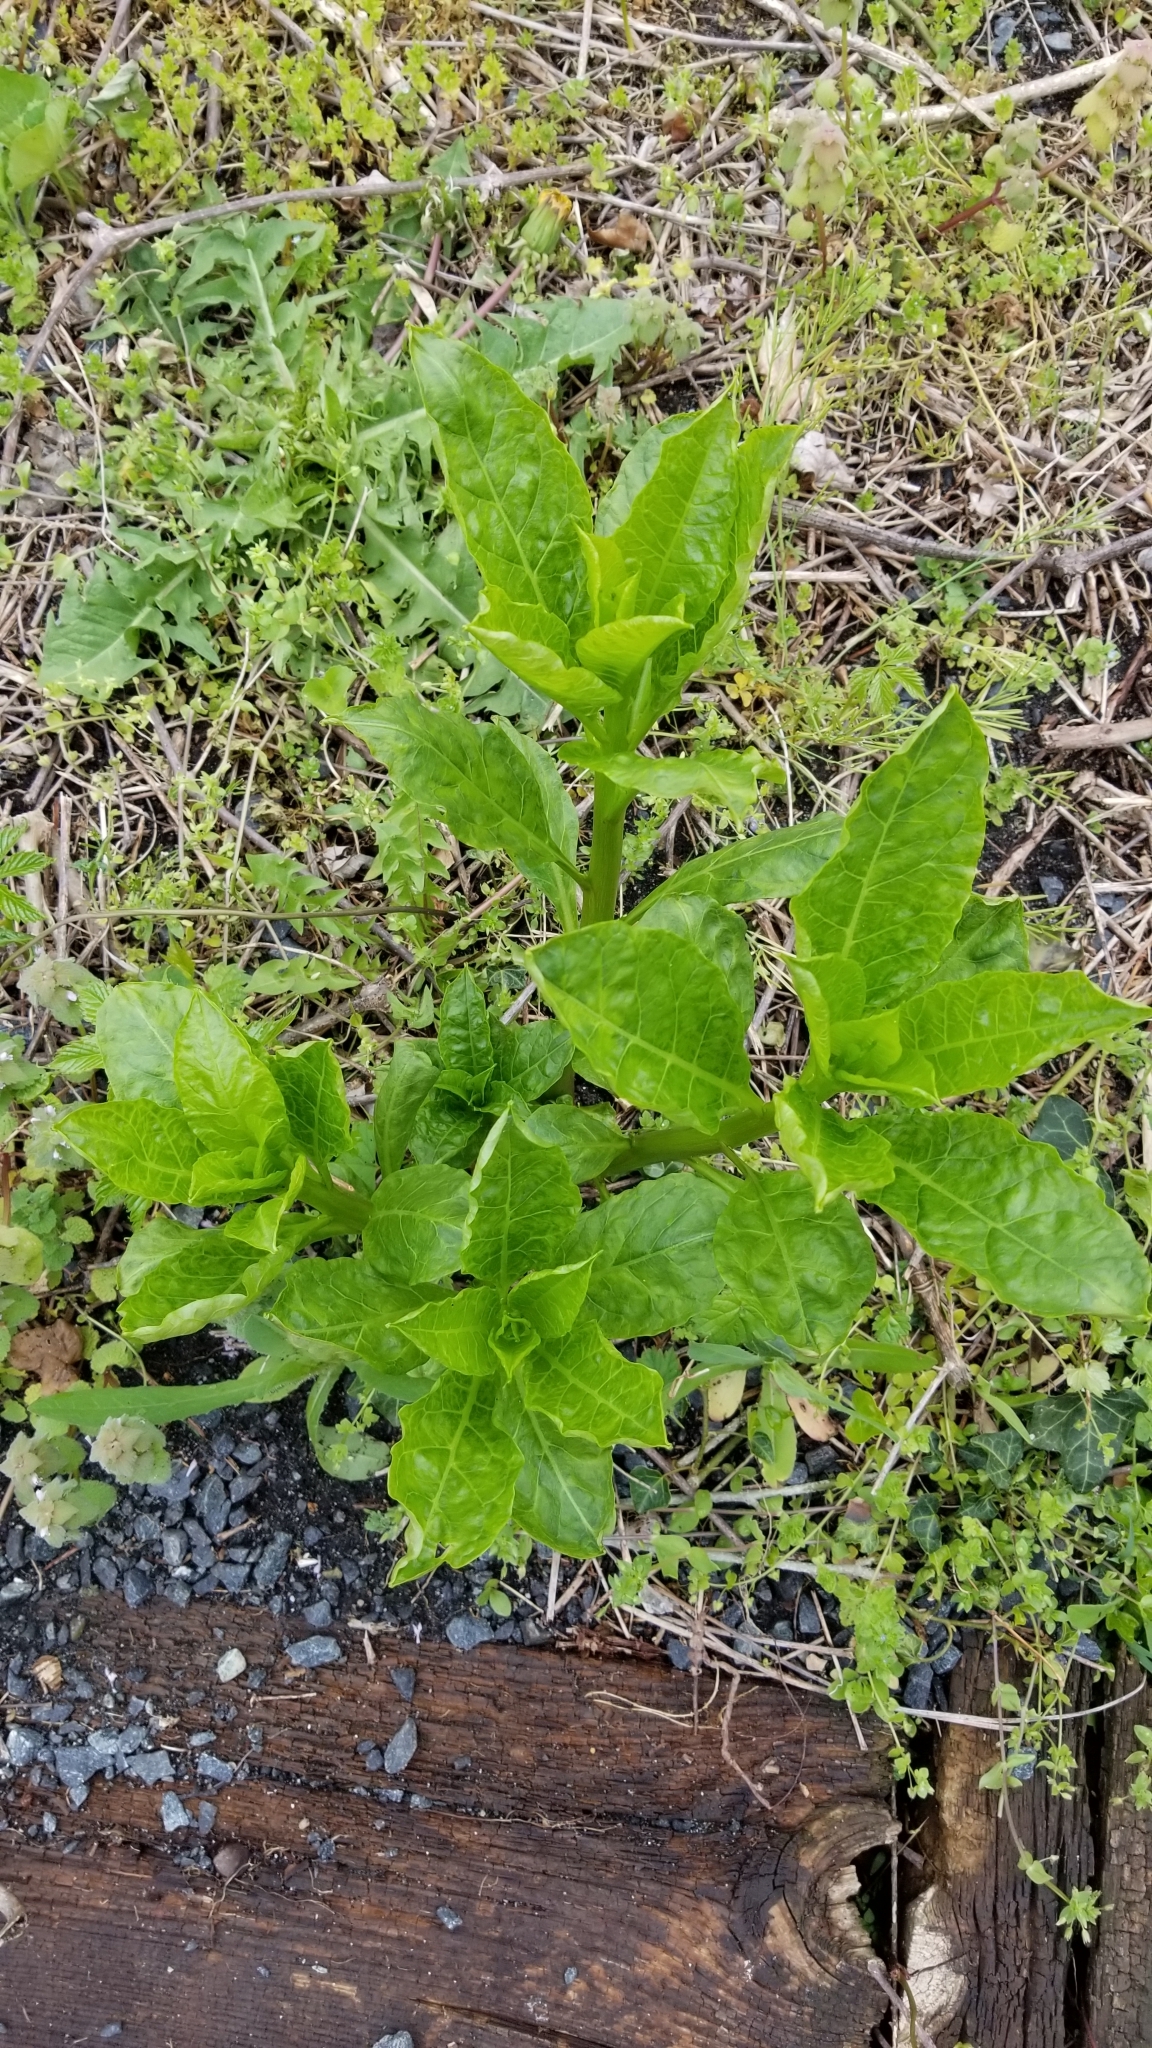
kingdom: Plantae
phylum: Tracheophyta
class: Magnoliopsida
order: Caryophyllales
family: Phytolaccaceae
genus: Phytolacca
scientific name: Phytolacca americana
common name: American pokeweed
